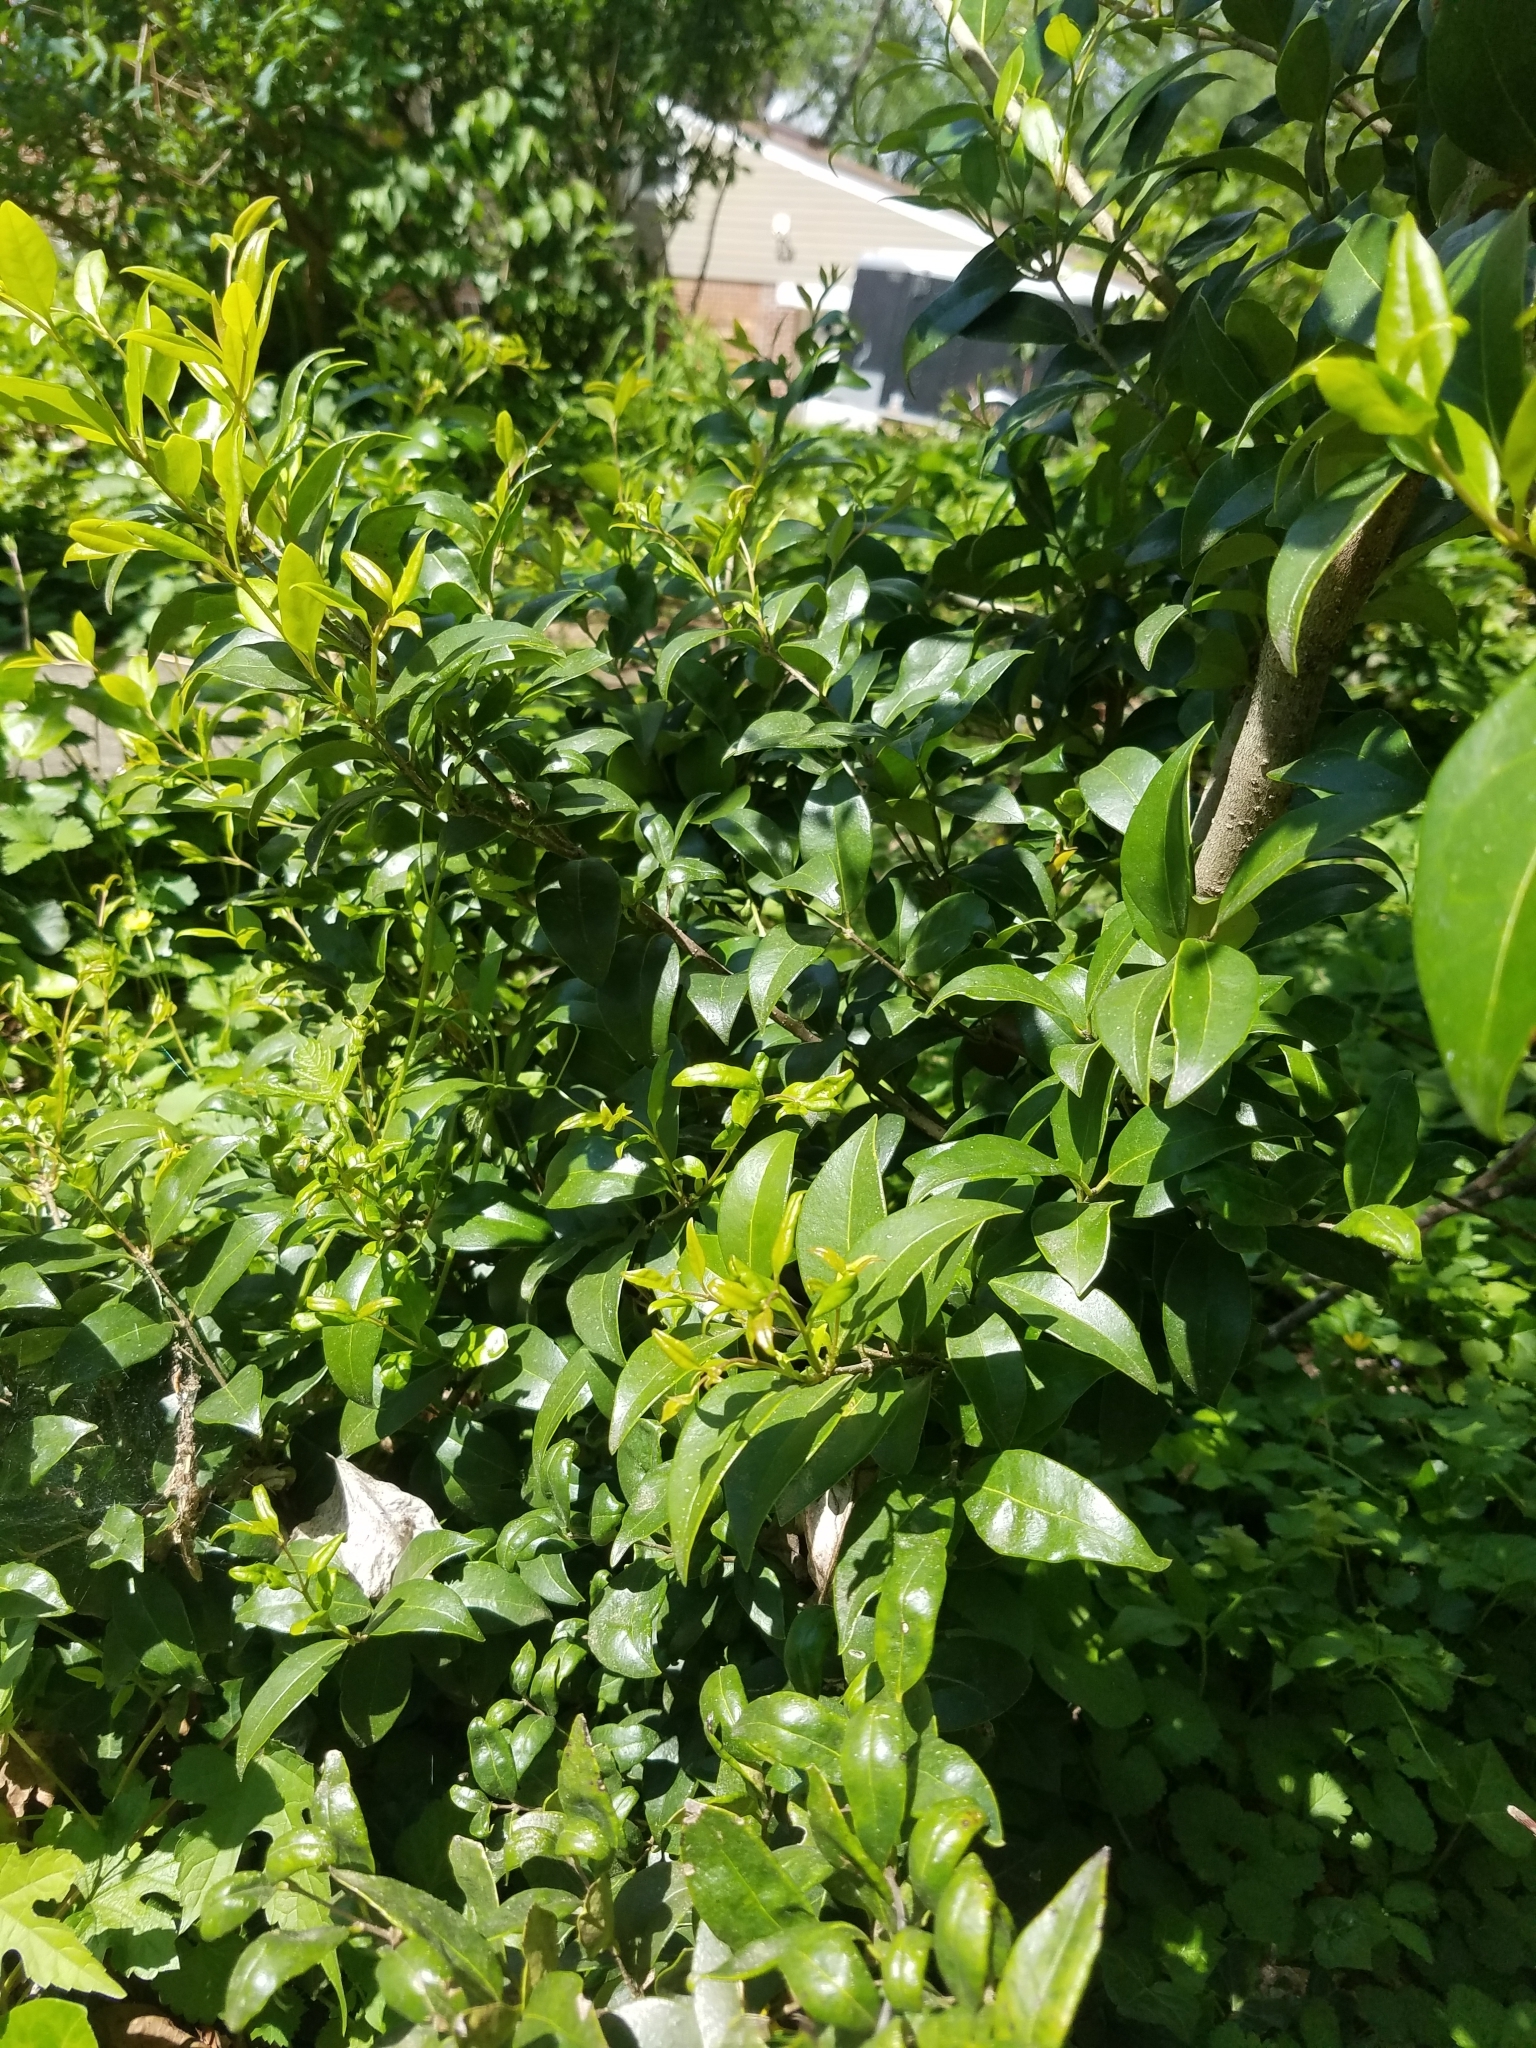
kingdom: Plantae
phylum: Tracheophyta
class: Magnoliopsida
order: Lamiales
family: Oleaceae
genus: Ligustrum
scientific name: Ligustrum japonicum
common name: Japanese privet
